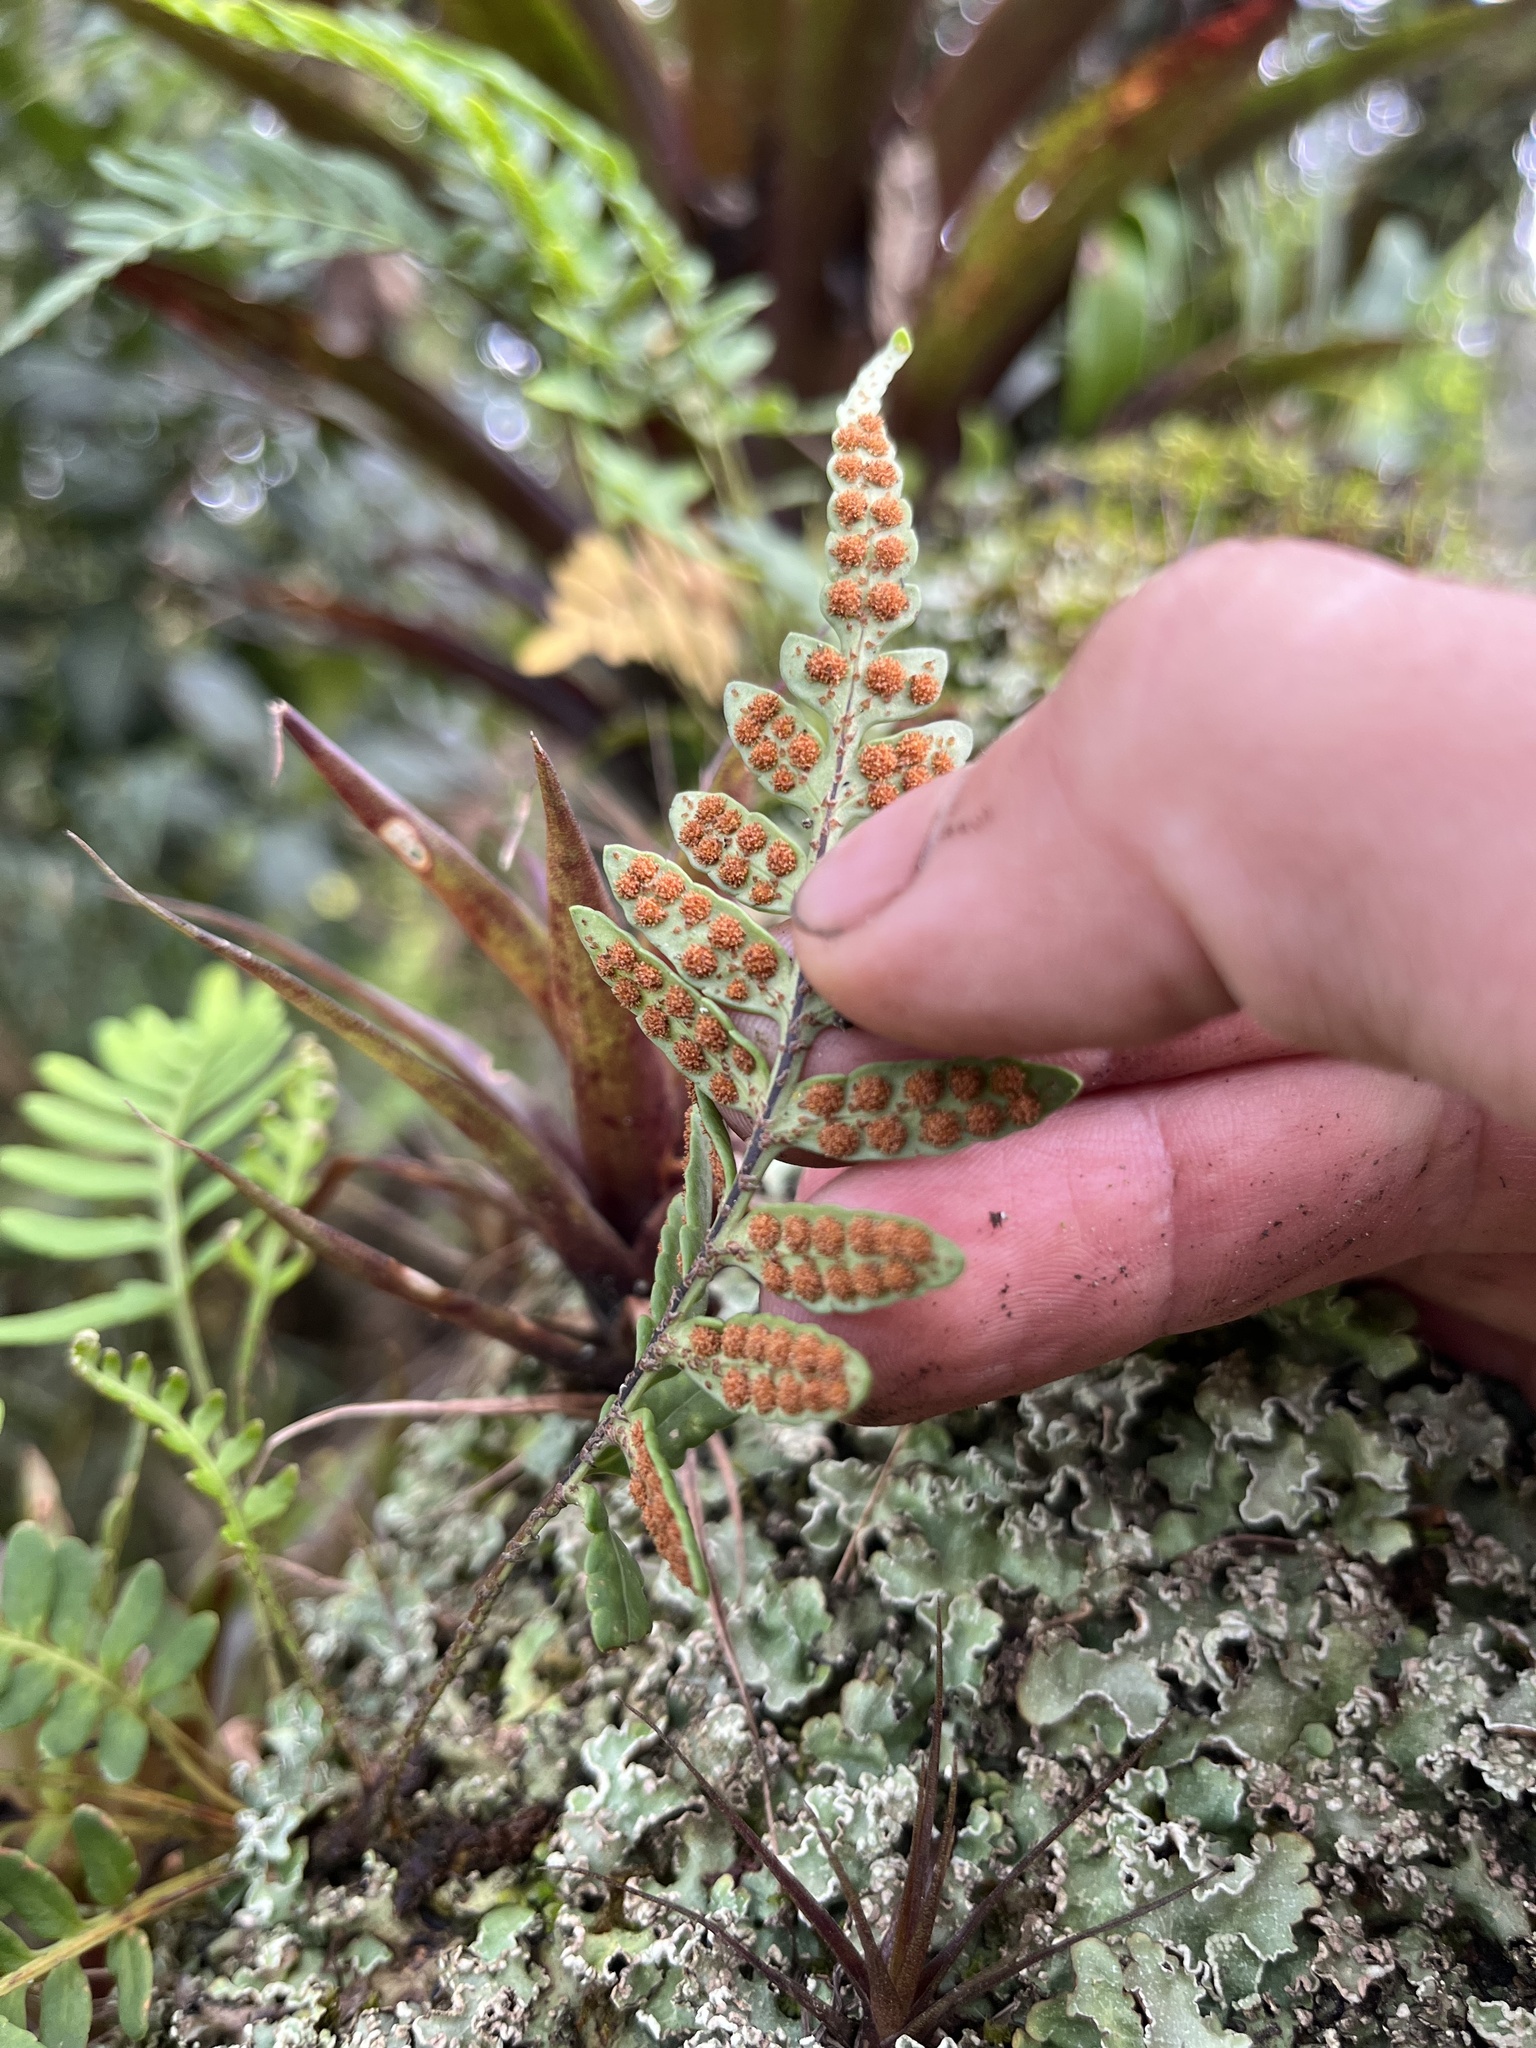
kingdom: Plantae
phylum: Tracheophyta
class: Polypodiopsida
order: Polypodiales
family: Polypodiaceae
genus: Pleopeltis
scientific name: Pleopeltis murora
